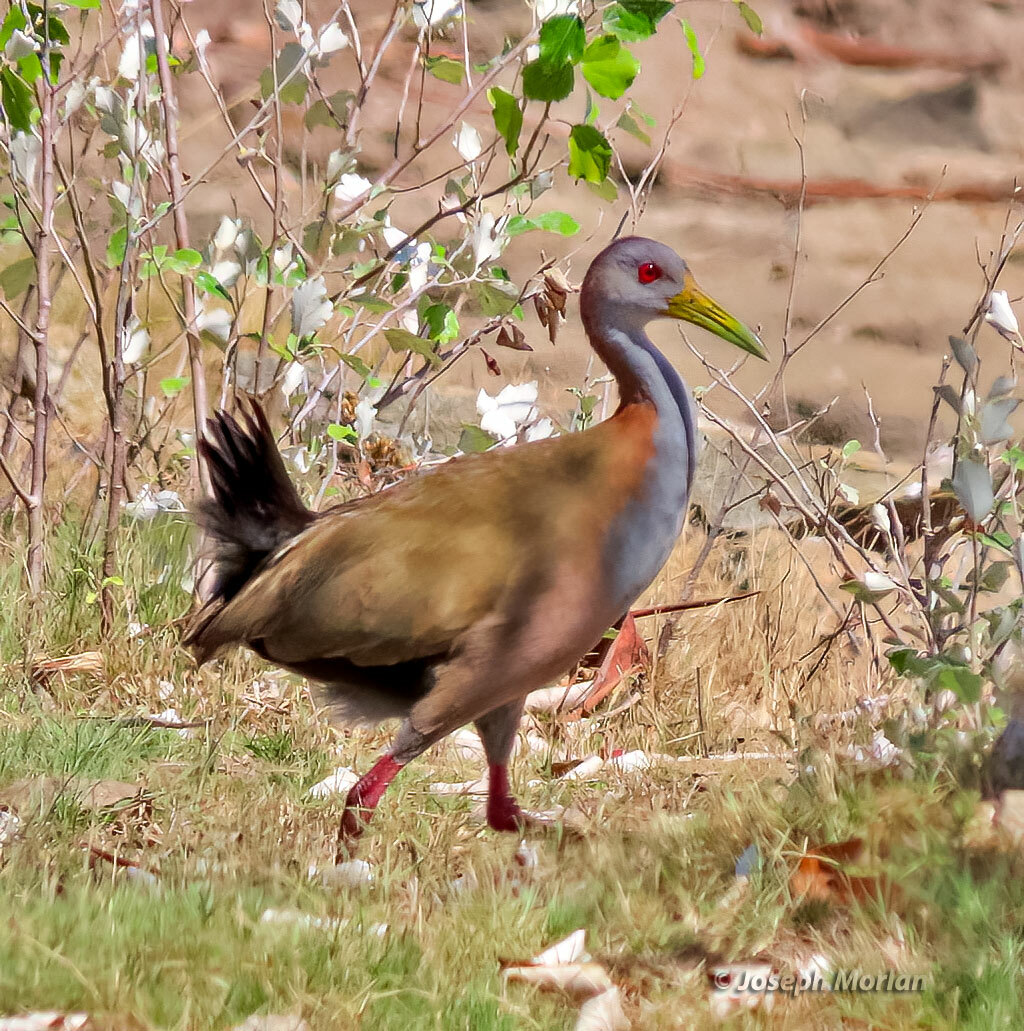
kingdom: Animalia
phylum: Chordata
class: Aves
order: Gruiformes
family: Rallidae
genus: Aramides
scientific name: Aramides ypecaha
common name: Giant wood rail
